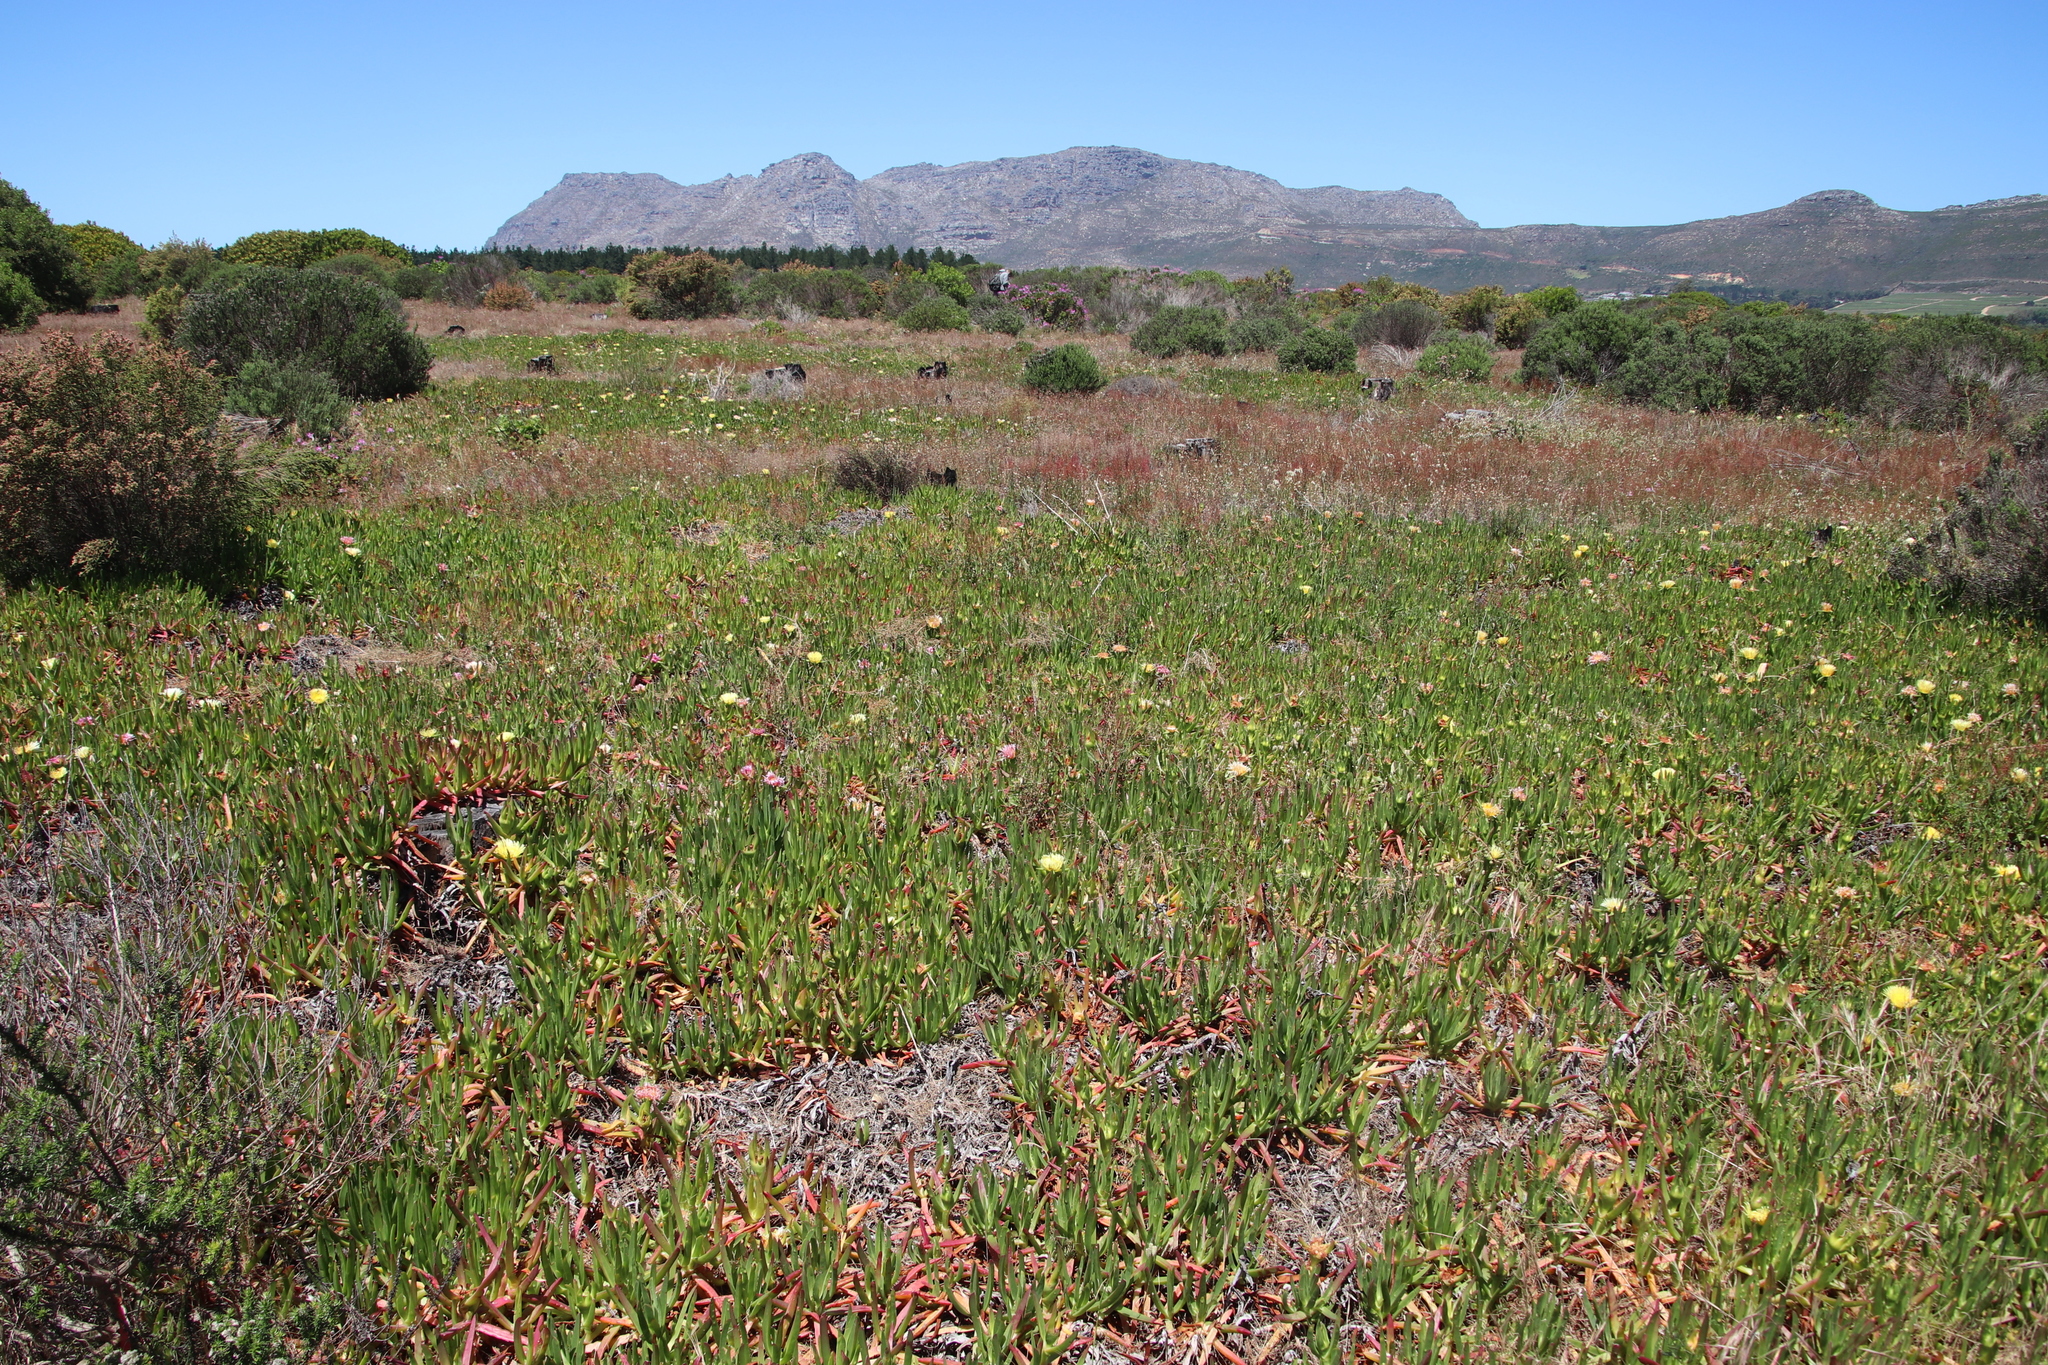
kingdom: Plantae
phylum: Tracheophyta
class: Magnoliopsida
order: Caryophyllales
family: Aizoaceae
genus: Carpobrotus
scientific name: Carpobrotus edulis
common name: Hottentot-fig
